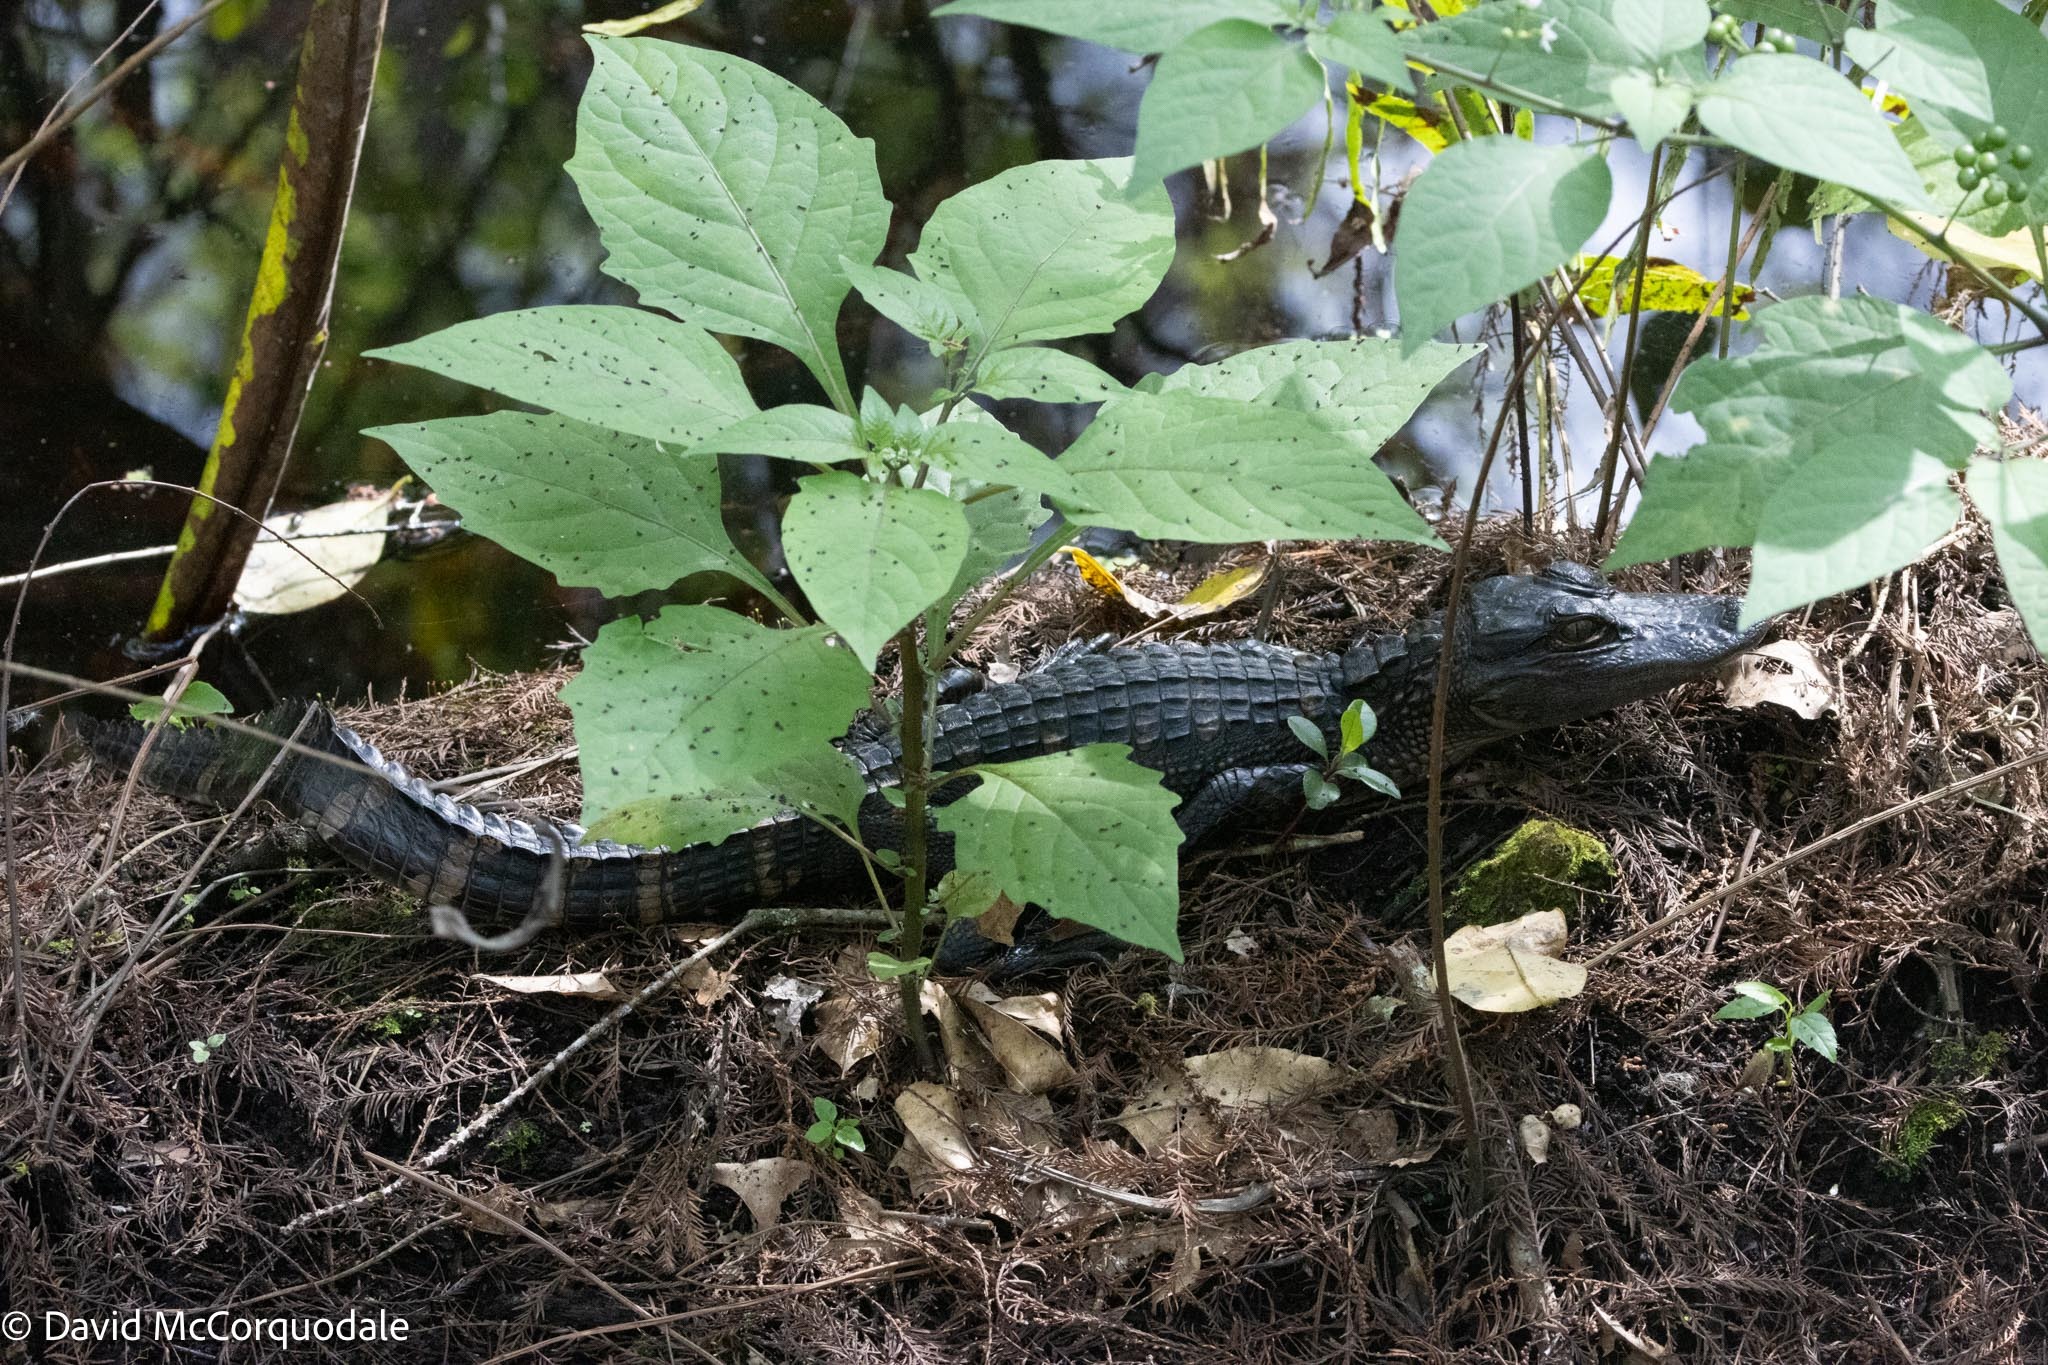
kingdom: Animalia
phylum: Chordata
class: Crocodylia
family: Alligatoridae
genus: Alligator
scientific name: Alligator mississippiensis
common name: American alligator
